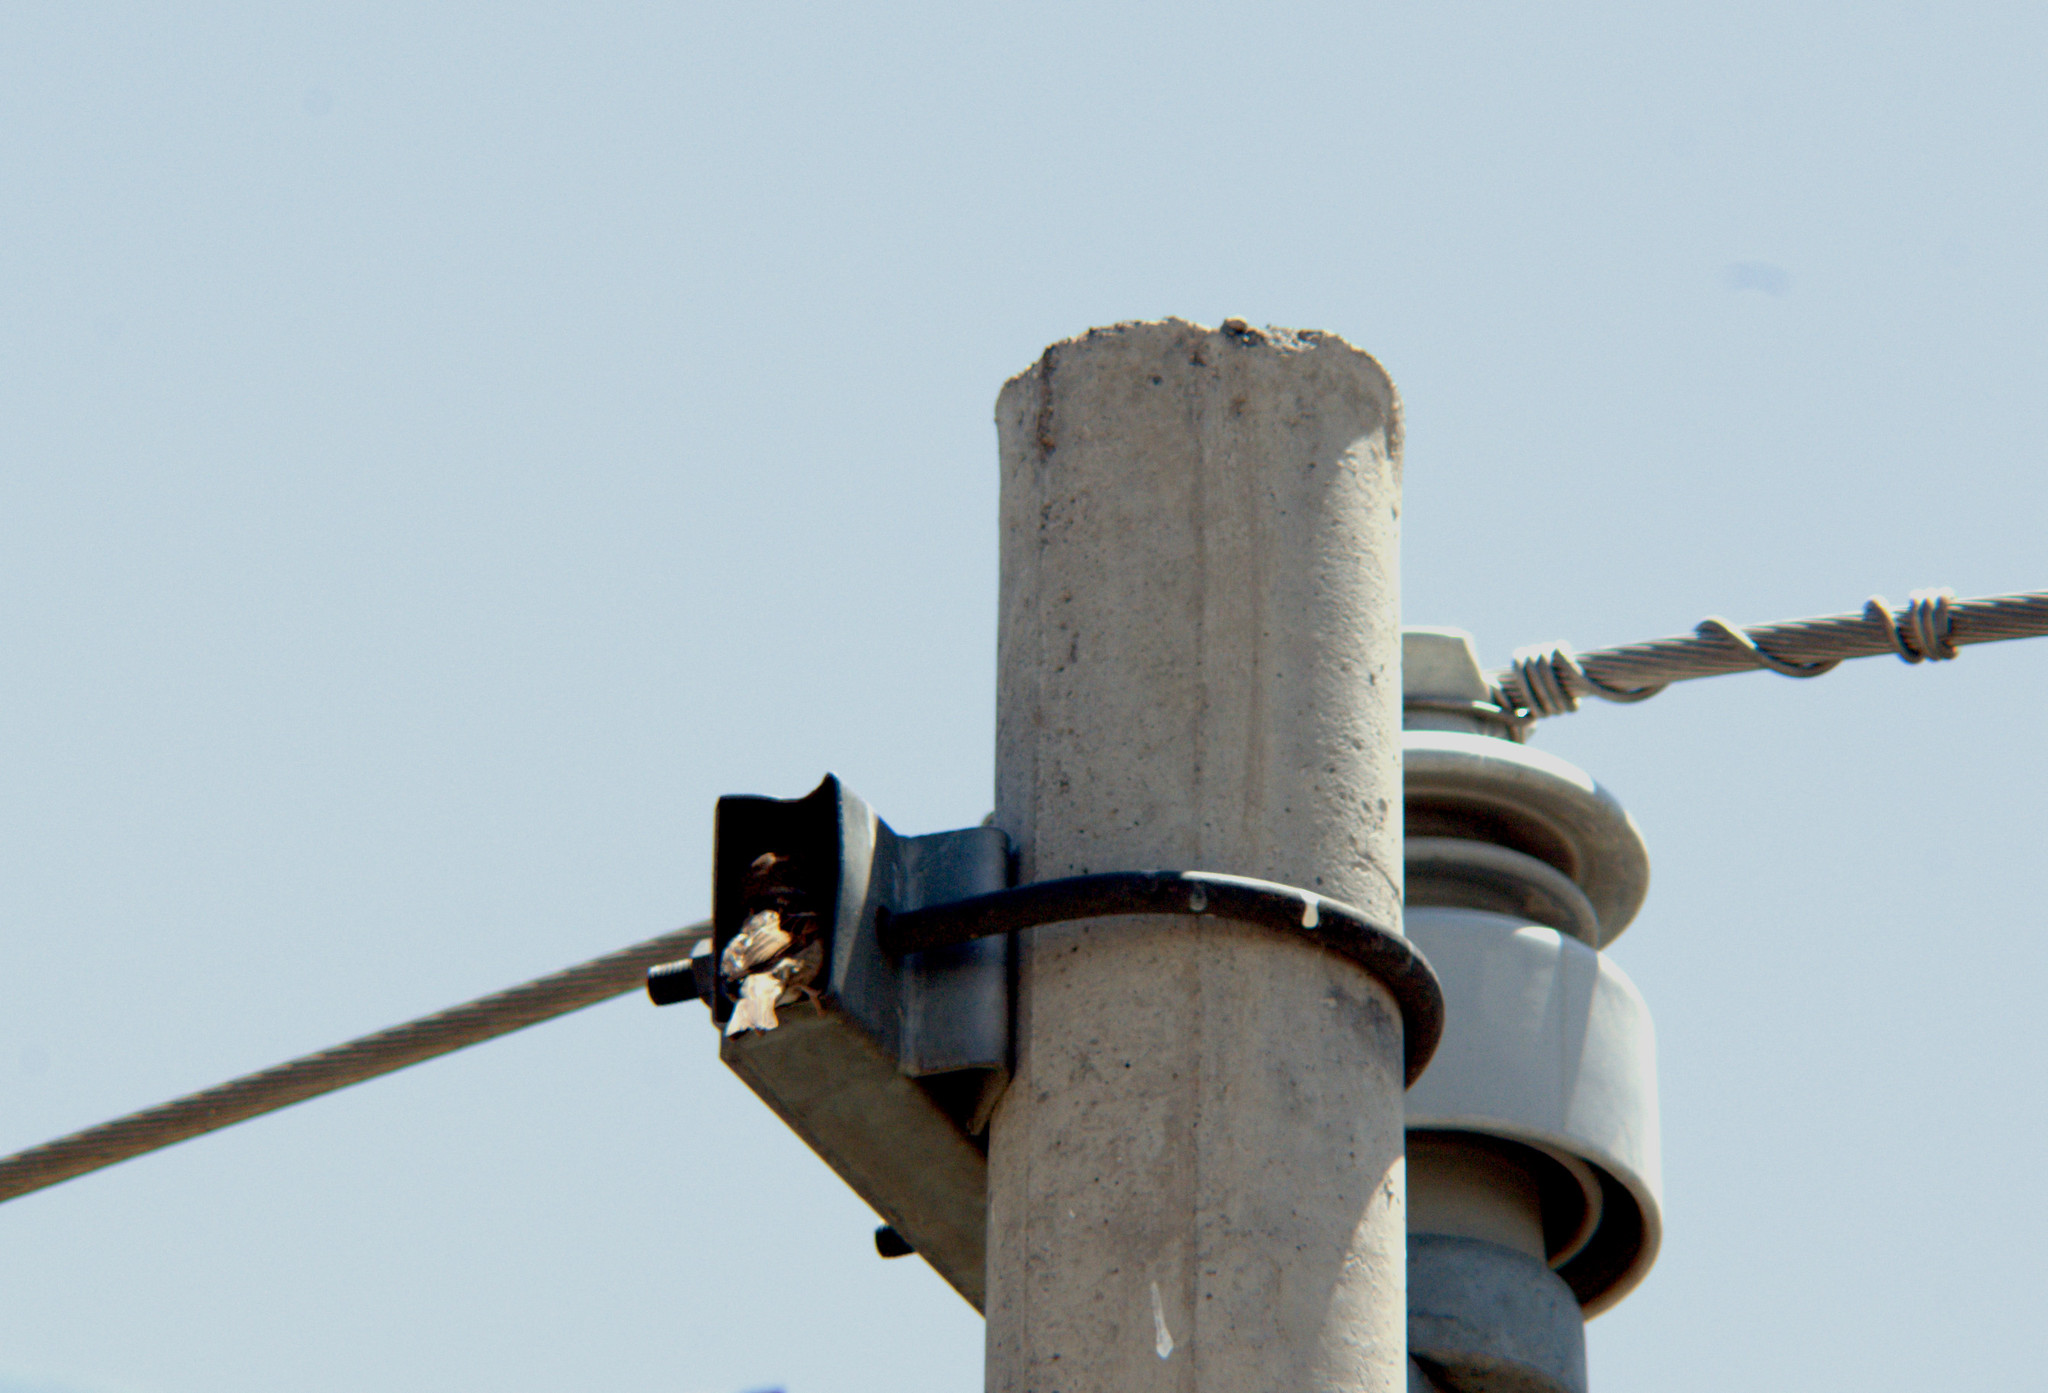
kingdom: Animalia
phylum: Chordata
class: Aves
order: Passeriformes
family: Passeridae
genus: Passer
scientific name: Passer domesticus
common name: House sparrow
